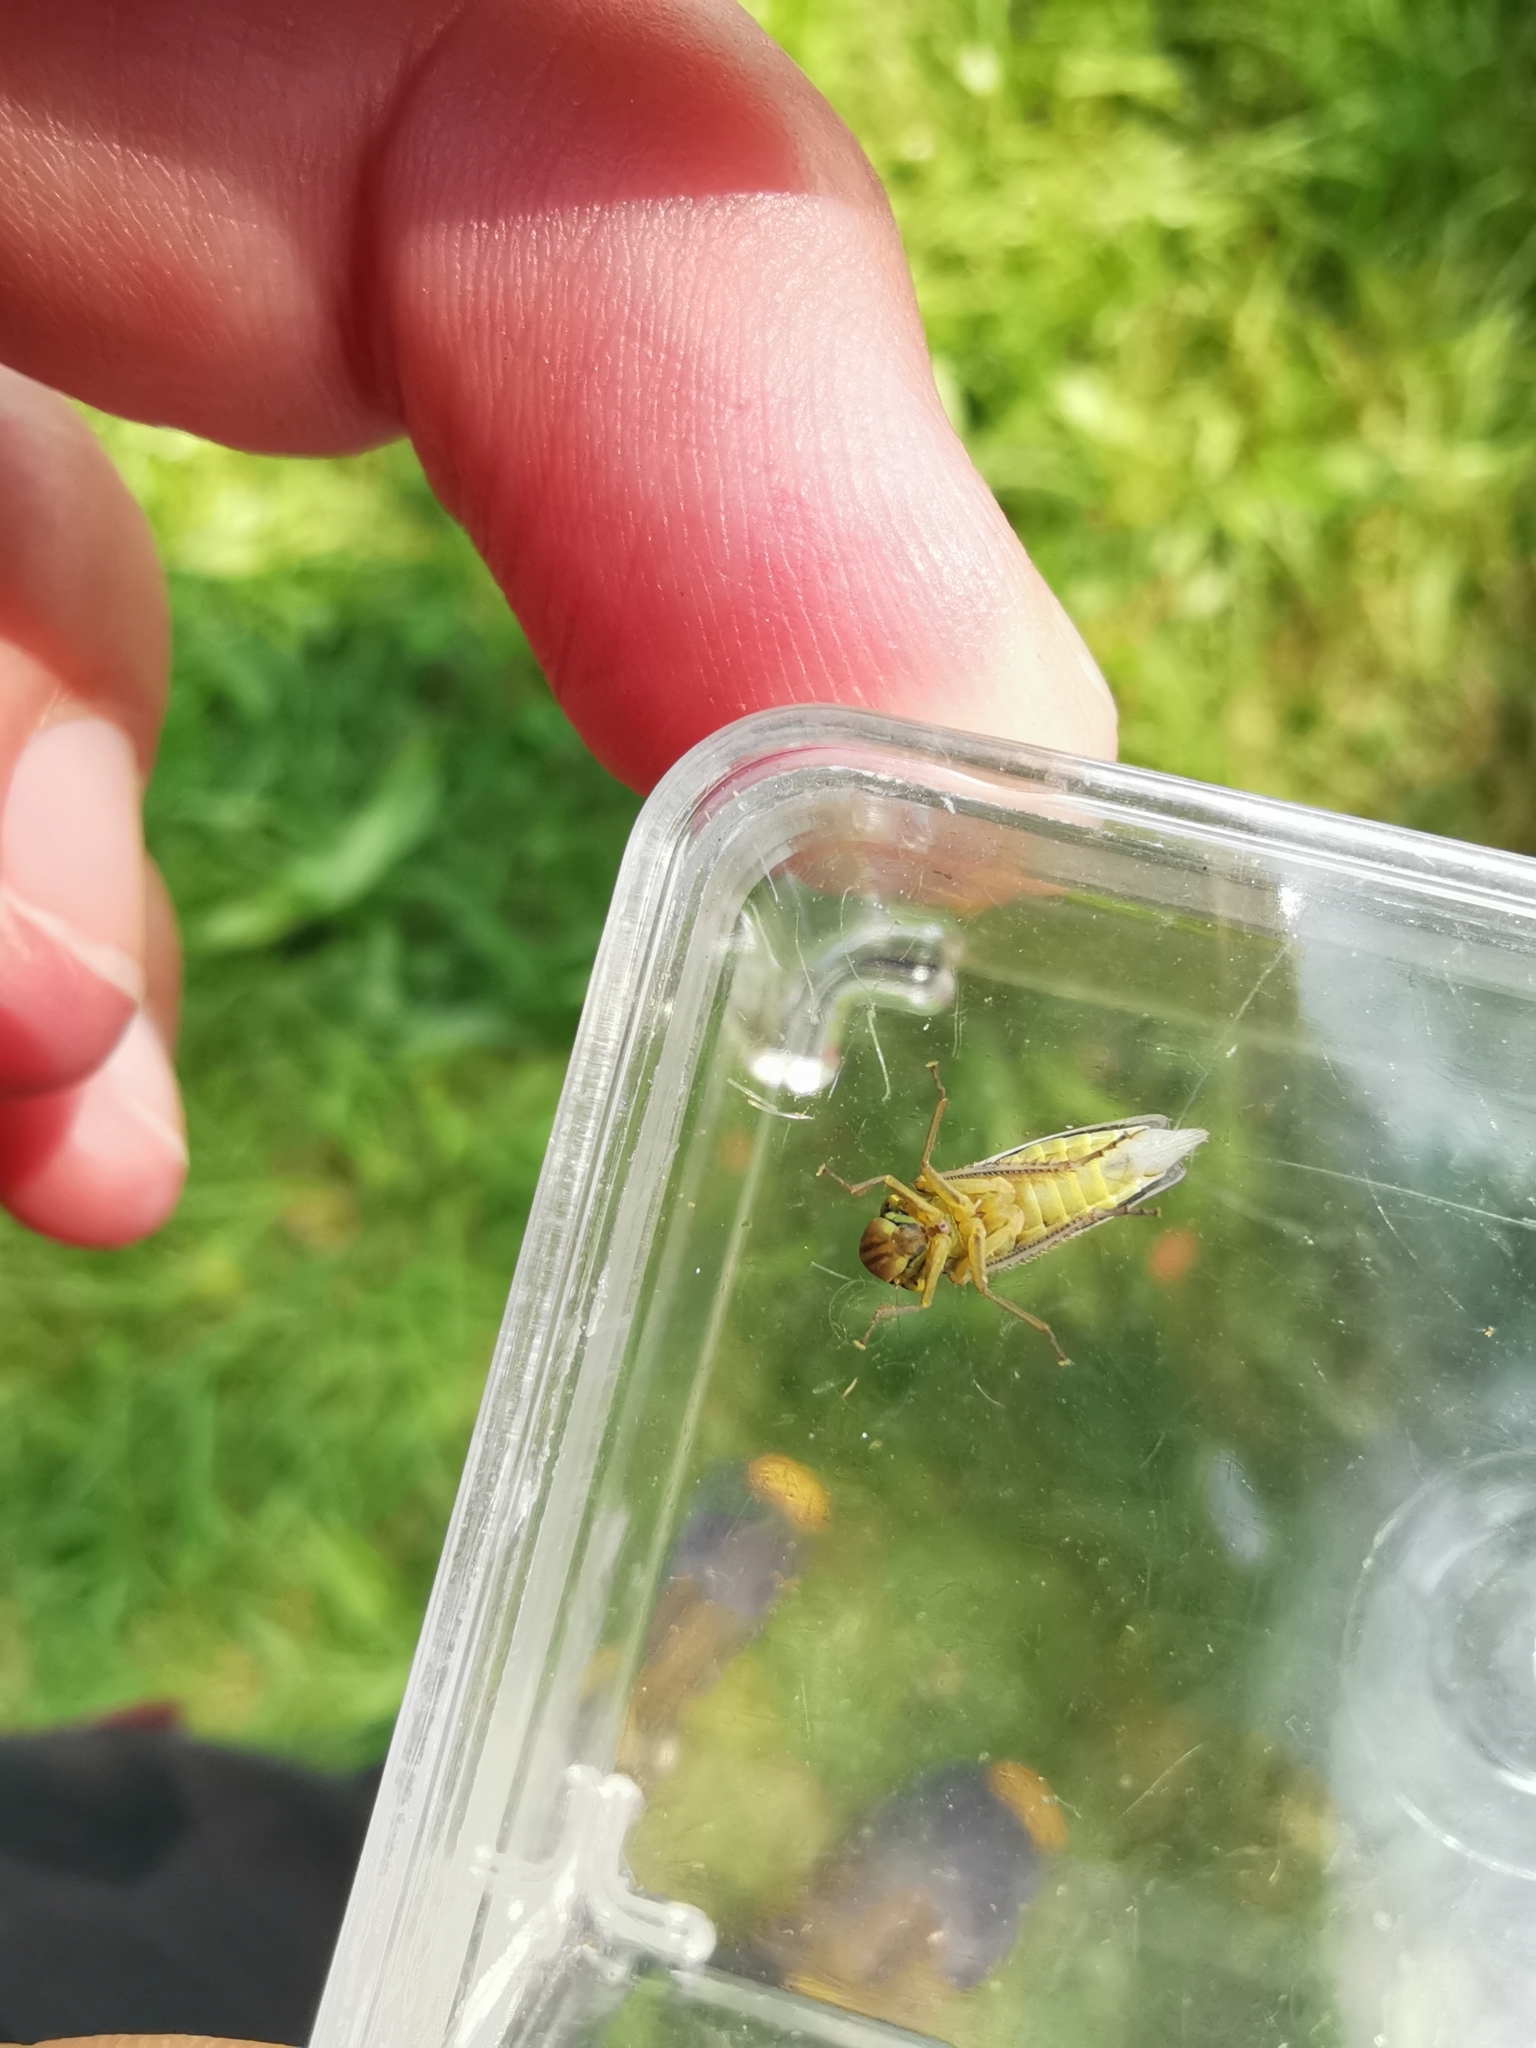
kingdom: Animalia
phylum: Arthropoda
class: Insecta
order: Hemiptera
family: Cicadellidae
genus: Cicadella
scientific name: Cicadella viridis
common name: Leafhopper
